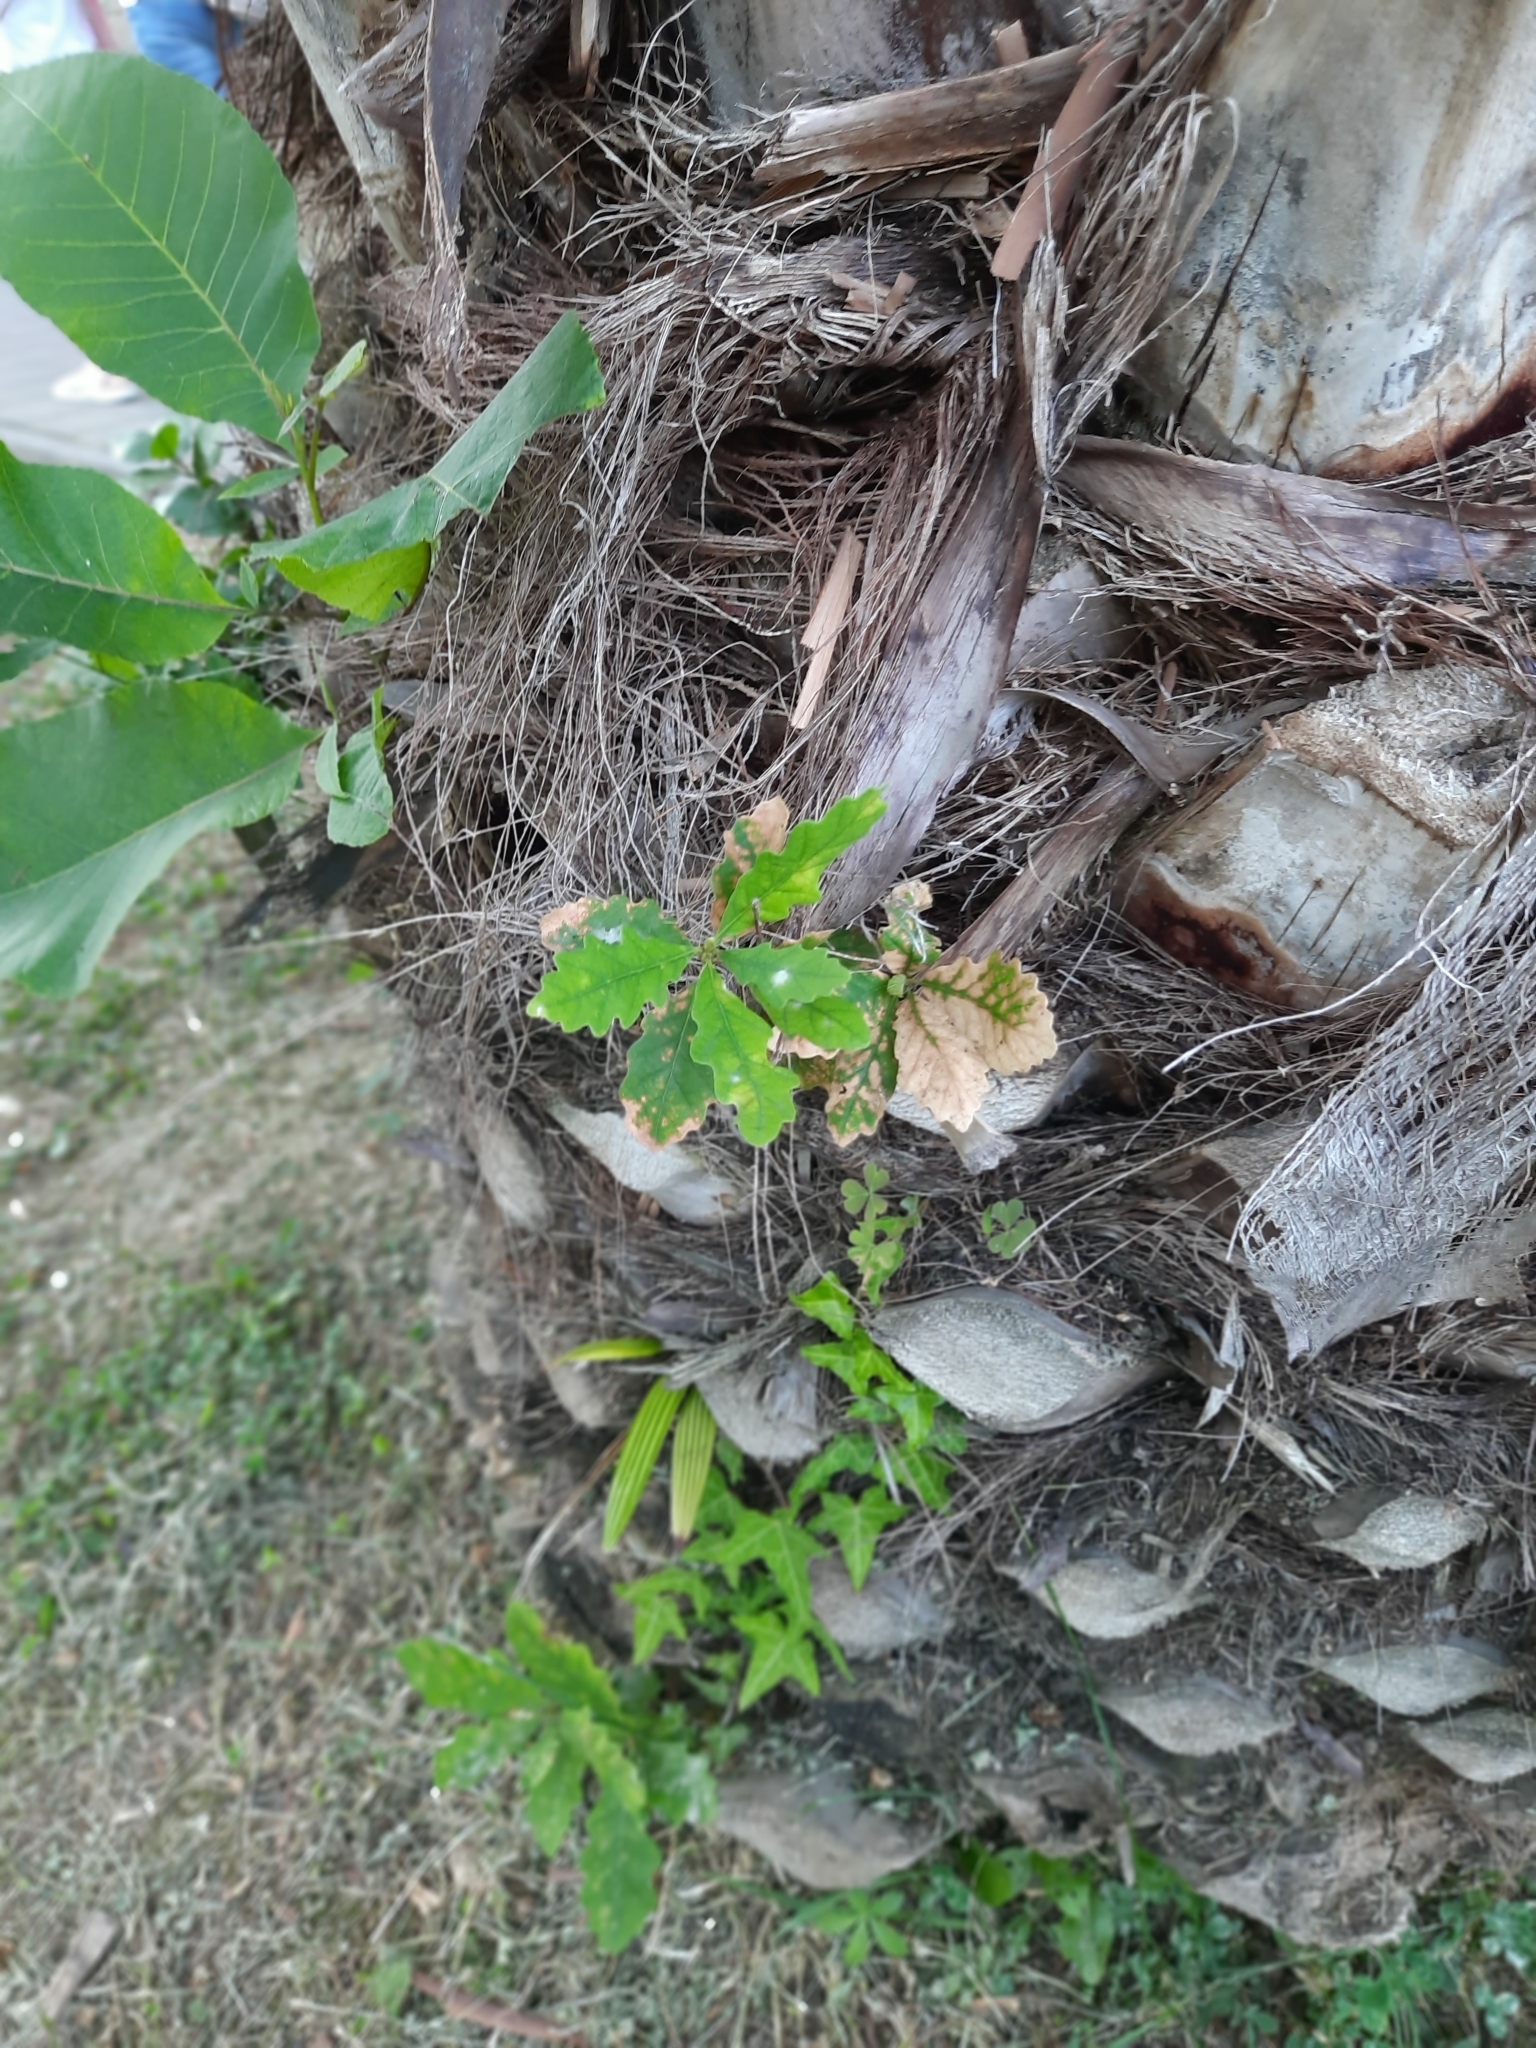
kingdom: Plantae
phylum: Tracheophyta
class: Magnoliopsida
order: Fagales
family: Fagaceae
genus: Quercus
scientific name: Quercus robur
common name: Pedunculate oak
